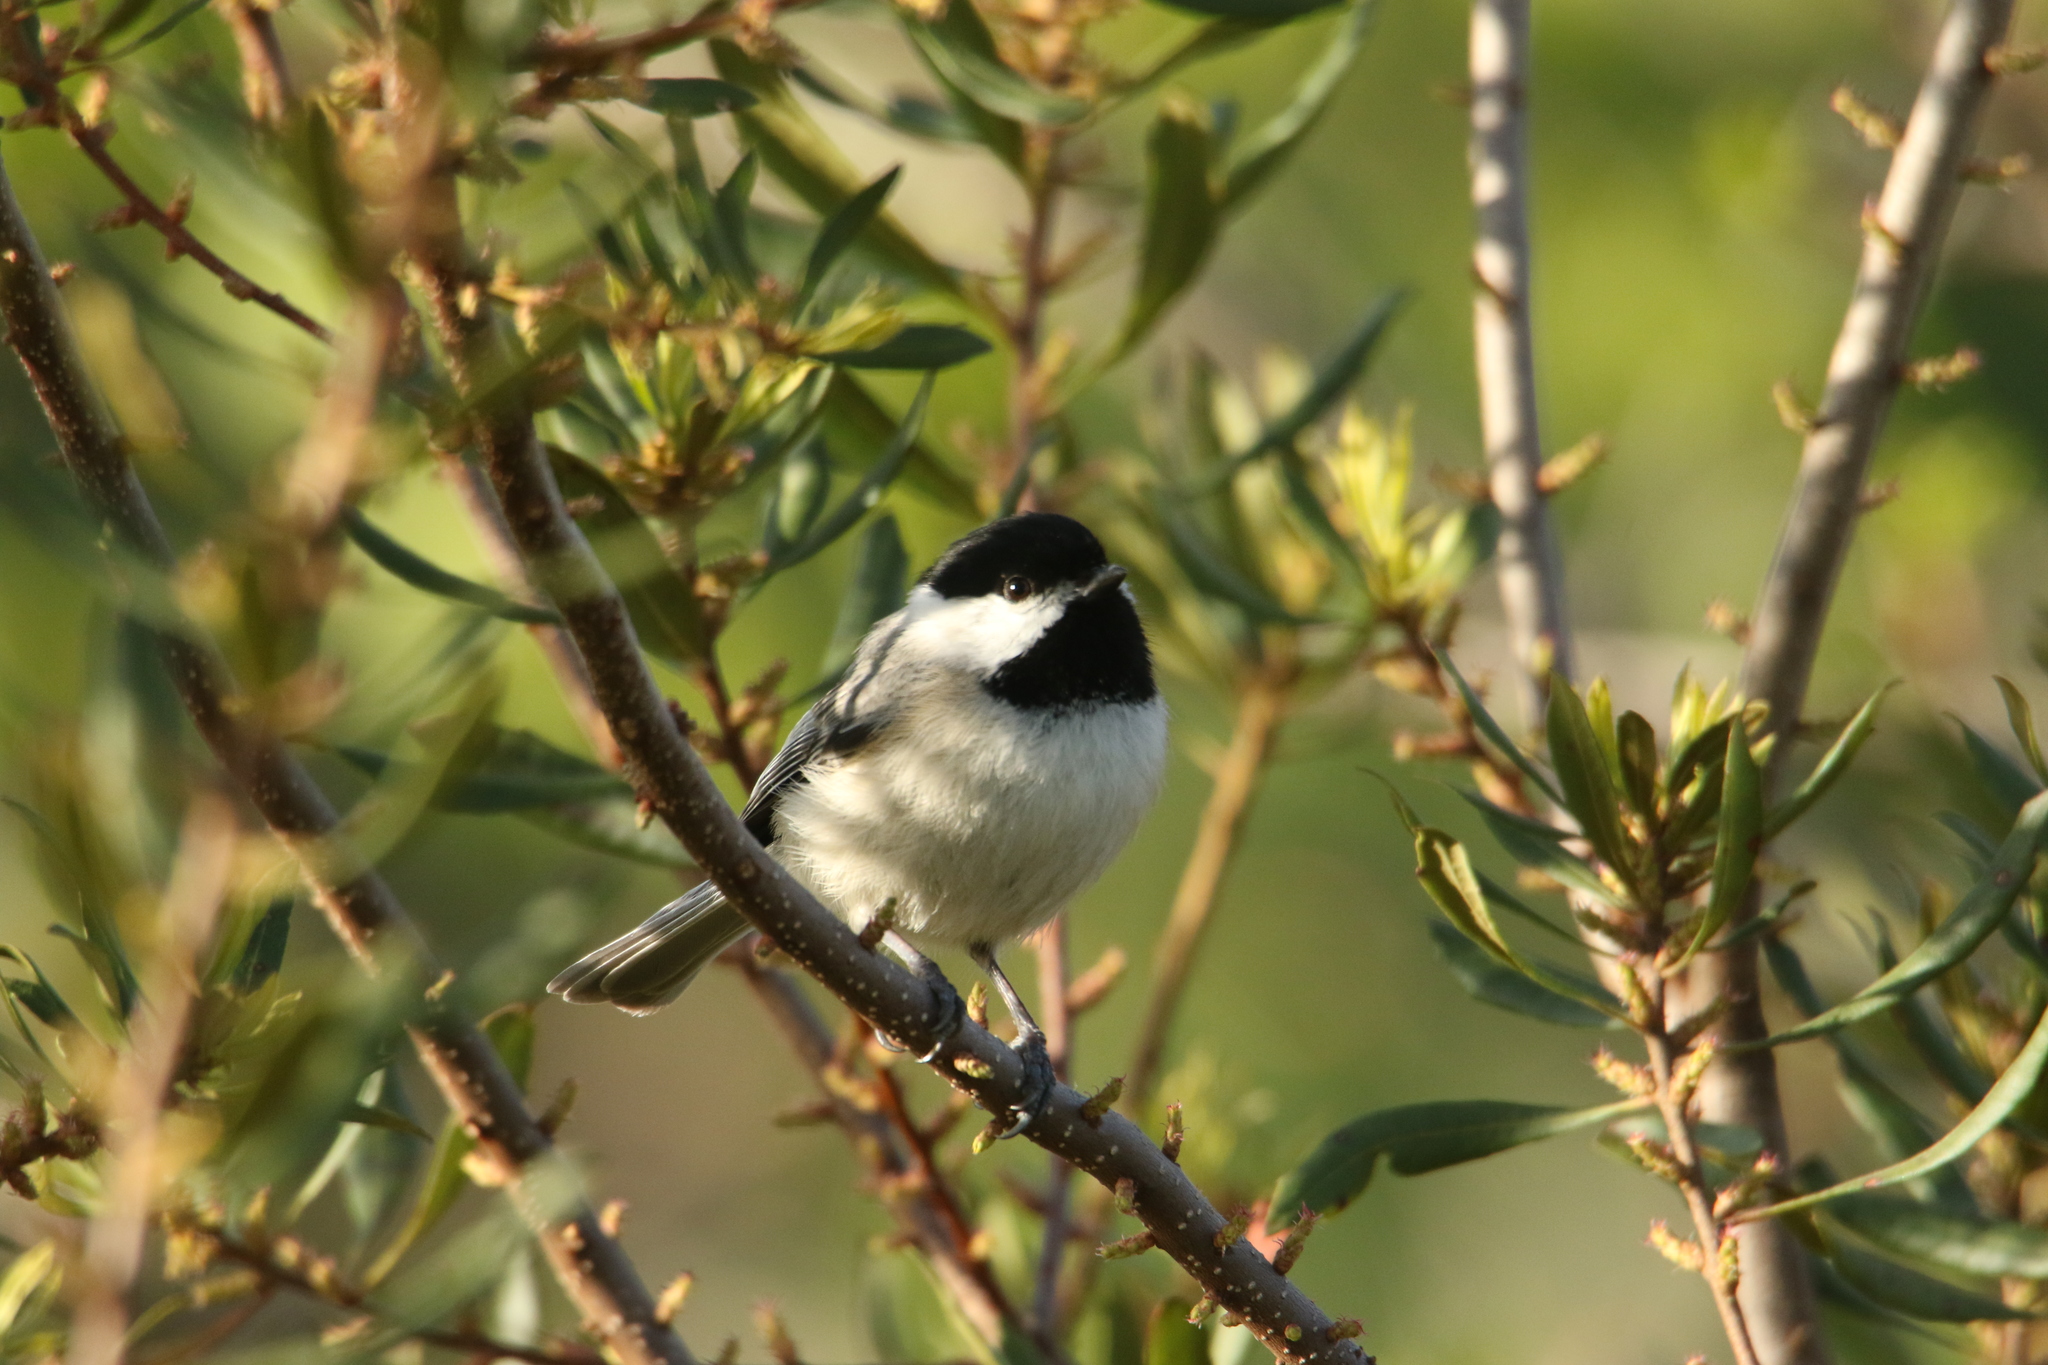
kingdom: Animalia
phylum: Chordata
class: Aves
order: Passeriformes
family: Paridae
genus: Poecile
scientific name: Poecile carolinensis
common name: Carolina chickadee
